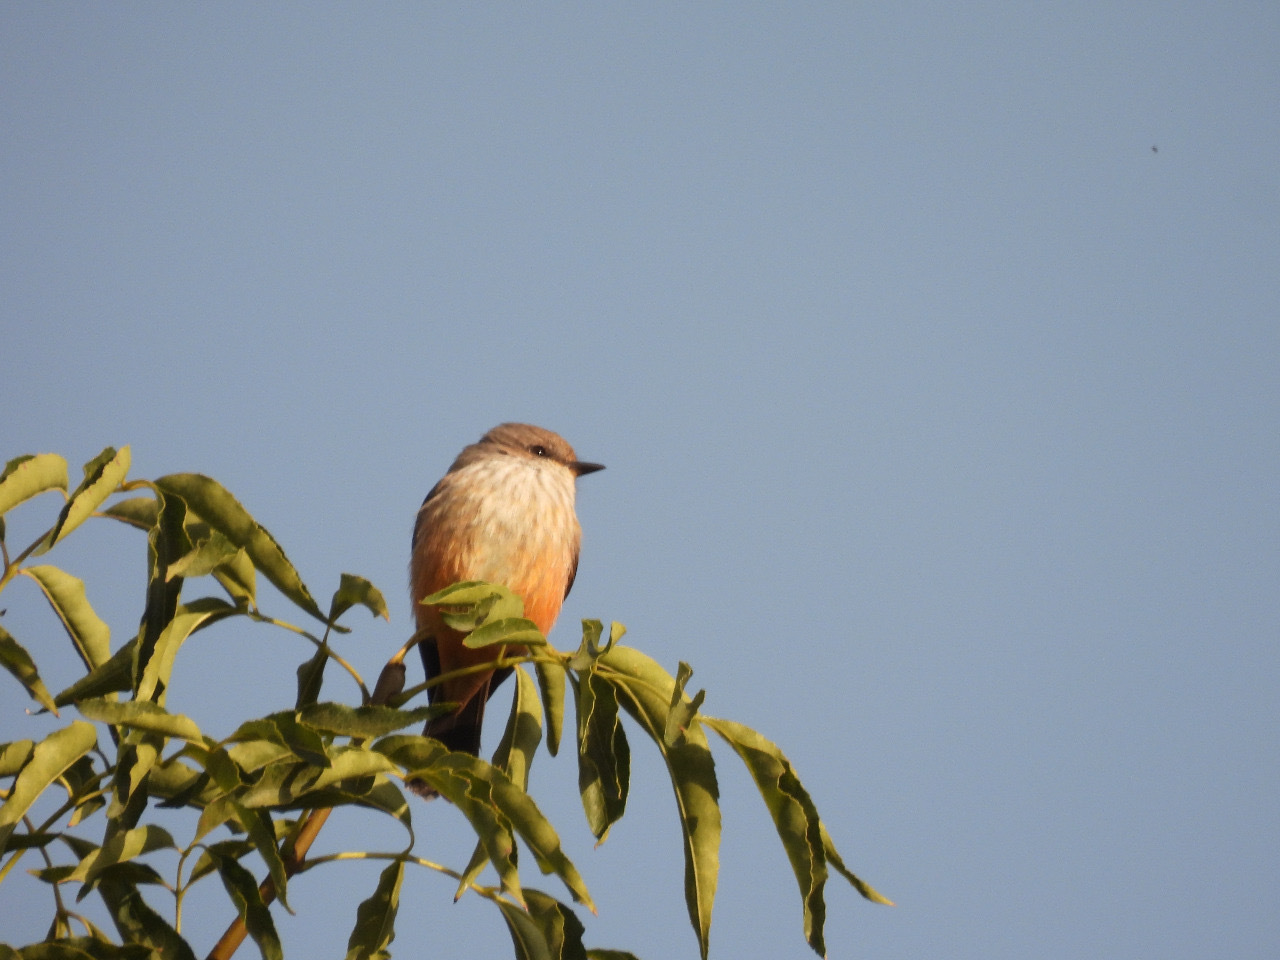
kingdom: Animalia
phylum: Chordata
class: Aves
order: Passeriformes
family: Tyrannidae
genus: Pyrocephalus
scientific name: Pyrocephalus rubinus
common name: Vermilion flycatcher
